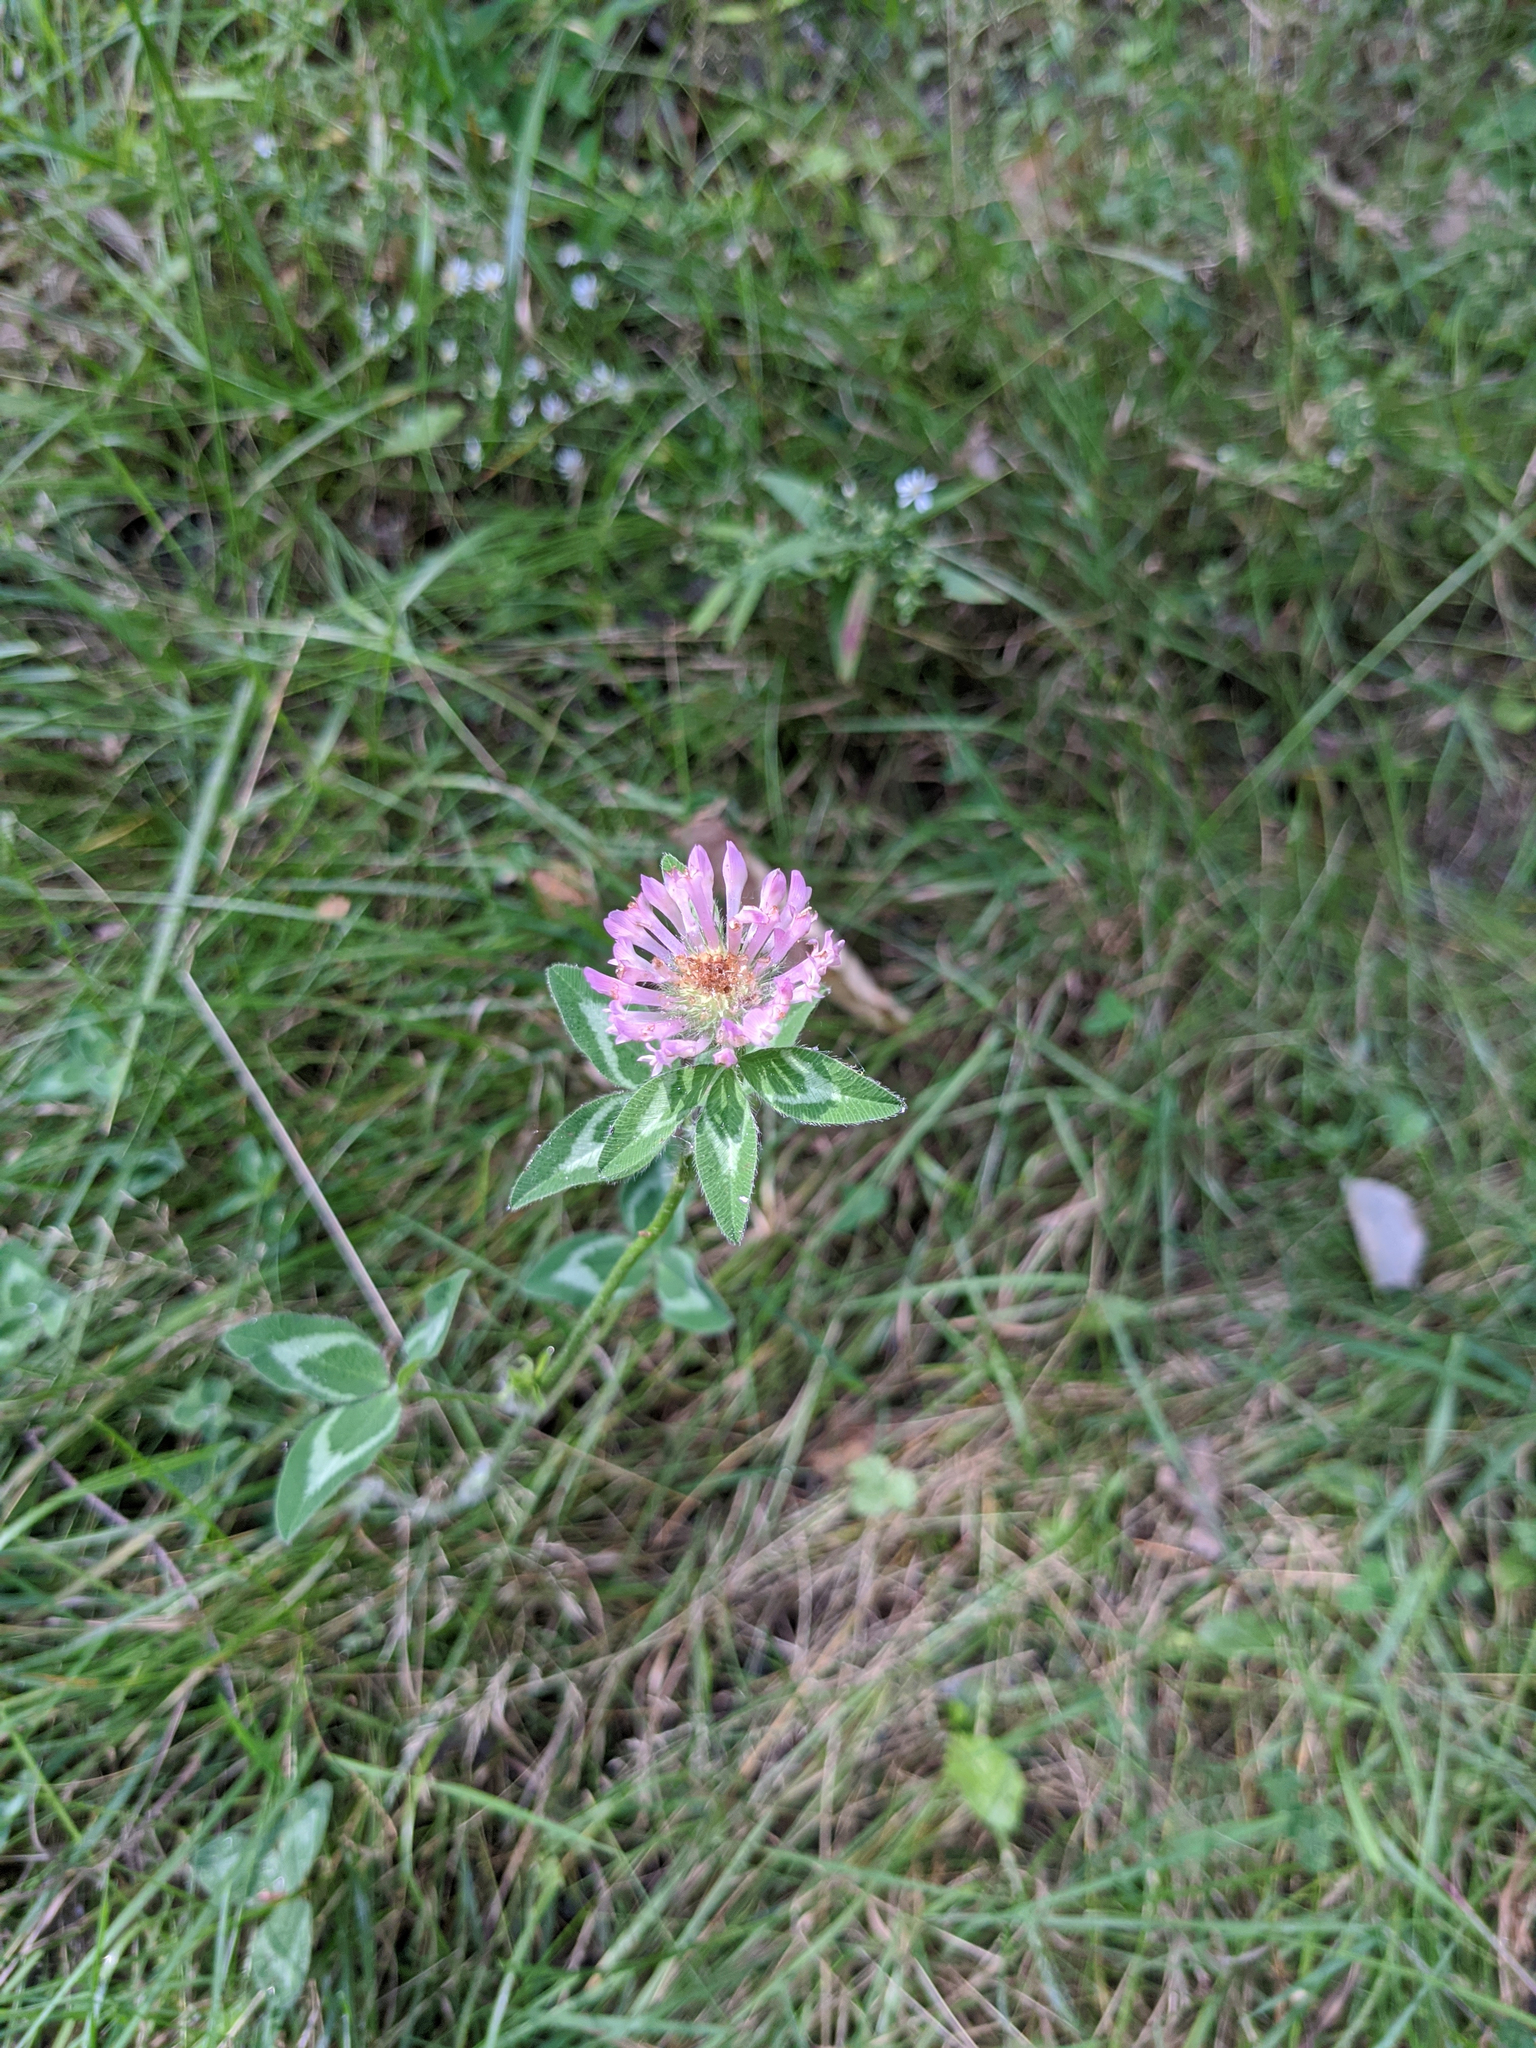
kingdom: Plantae
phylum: Tracheophyta
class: Magnoliopsida
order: Fabales
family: Fabaceae
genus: Trifolium
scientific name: Trifolium pratense
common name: Red clover
